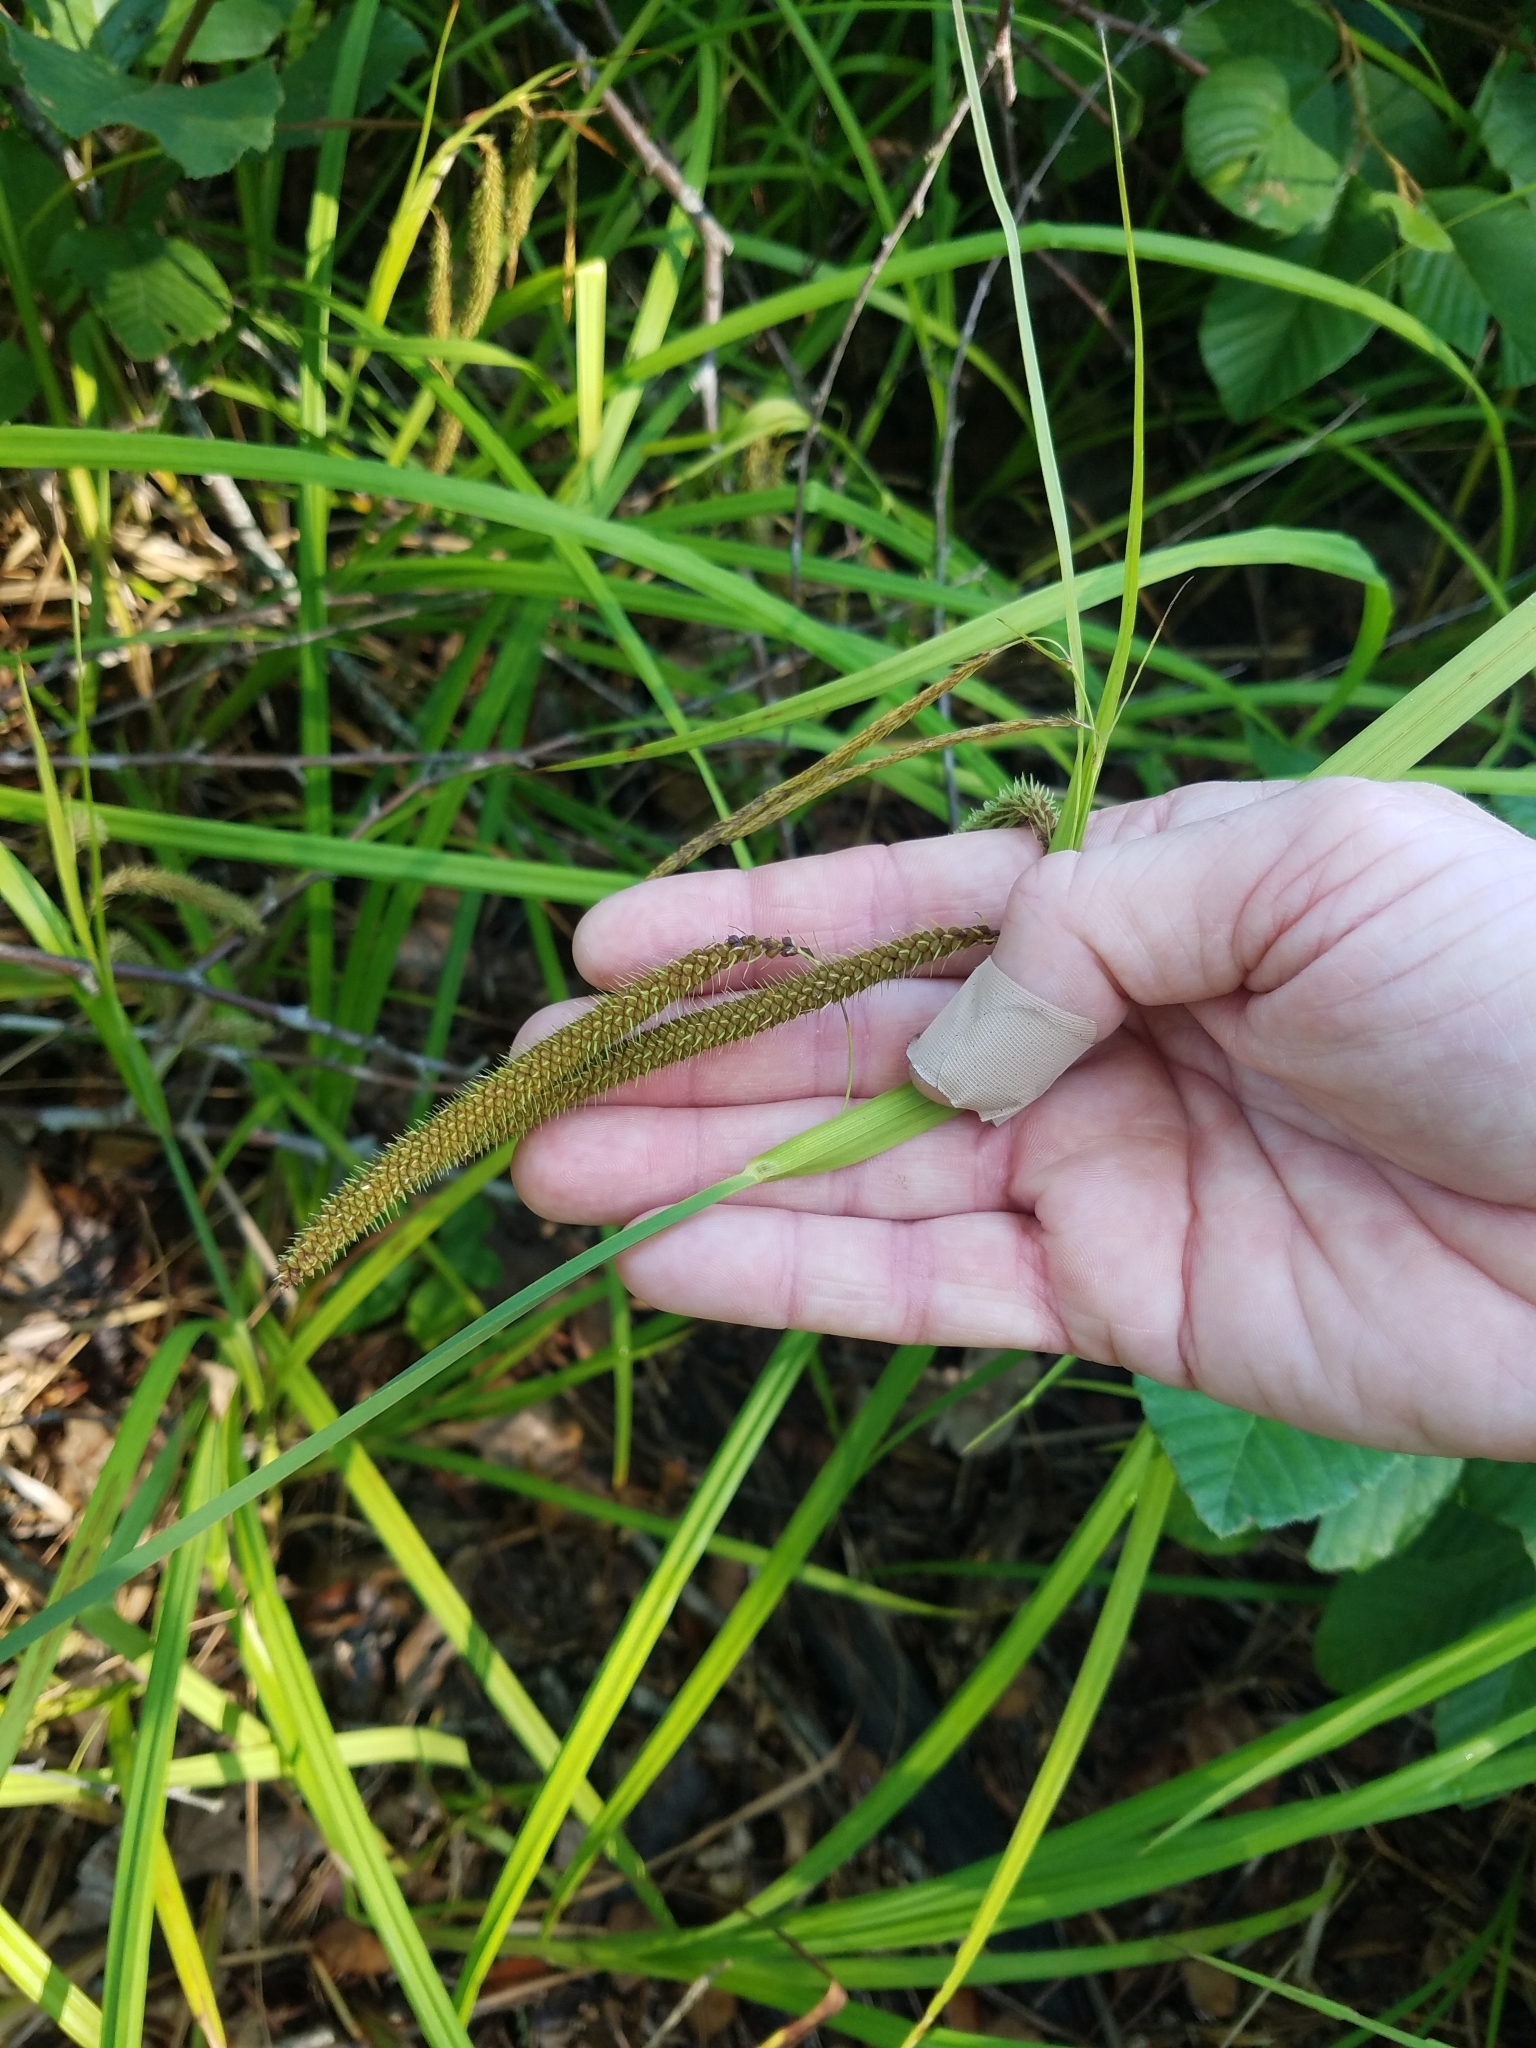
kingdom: Plantae
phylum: Tracheophyta
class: Liliopsida
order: Poales
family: Cyperaceae
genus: Carex
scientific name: Carex crinita
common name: Fringed sedge
